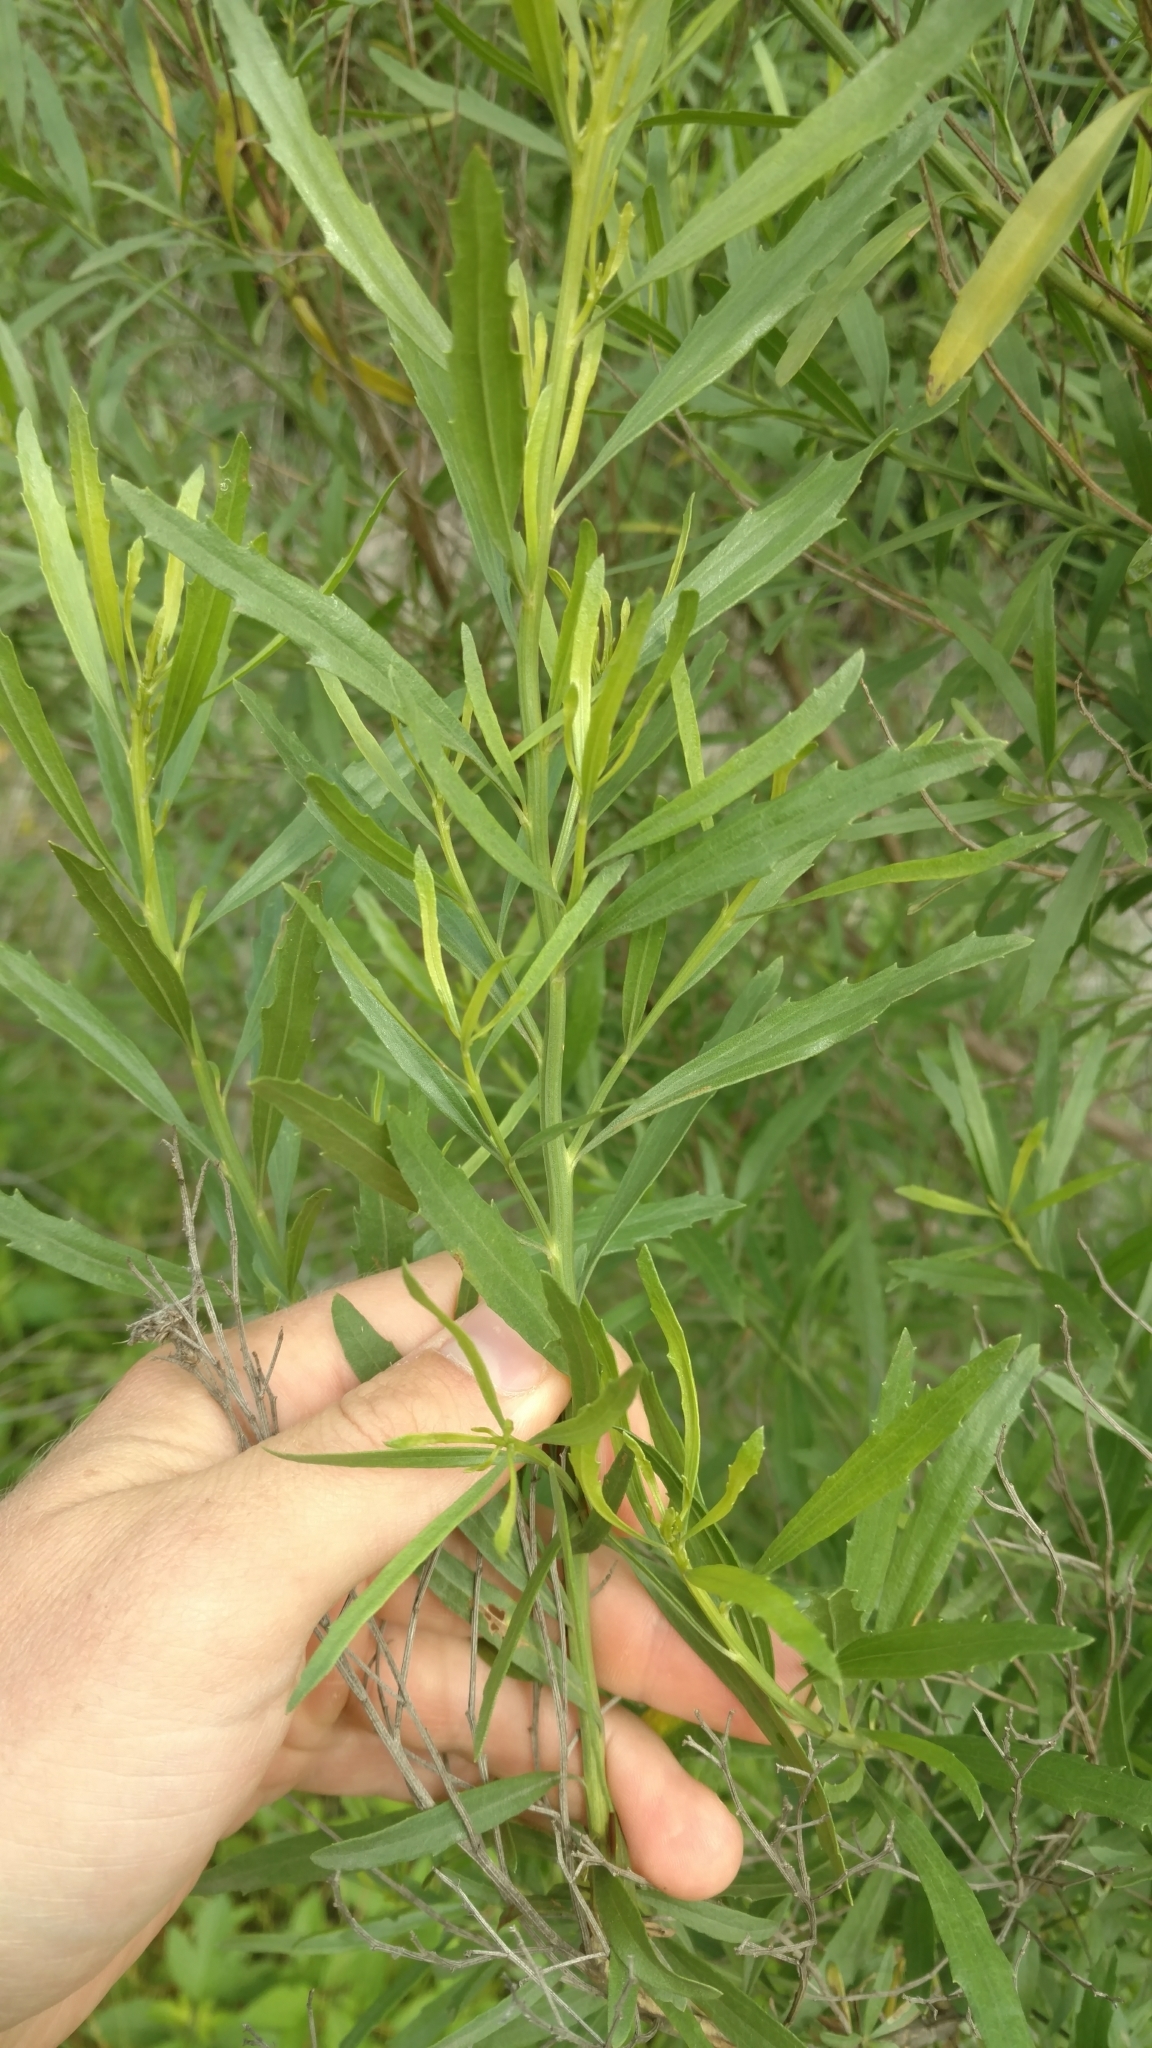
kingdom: Plantae
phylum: Tracheophyta
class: Magnoliopsida
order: Asterales
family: Asteraceae
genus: Baccharis
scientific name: Baccharis neglecta
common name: Roosevelt-weed
